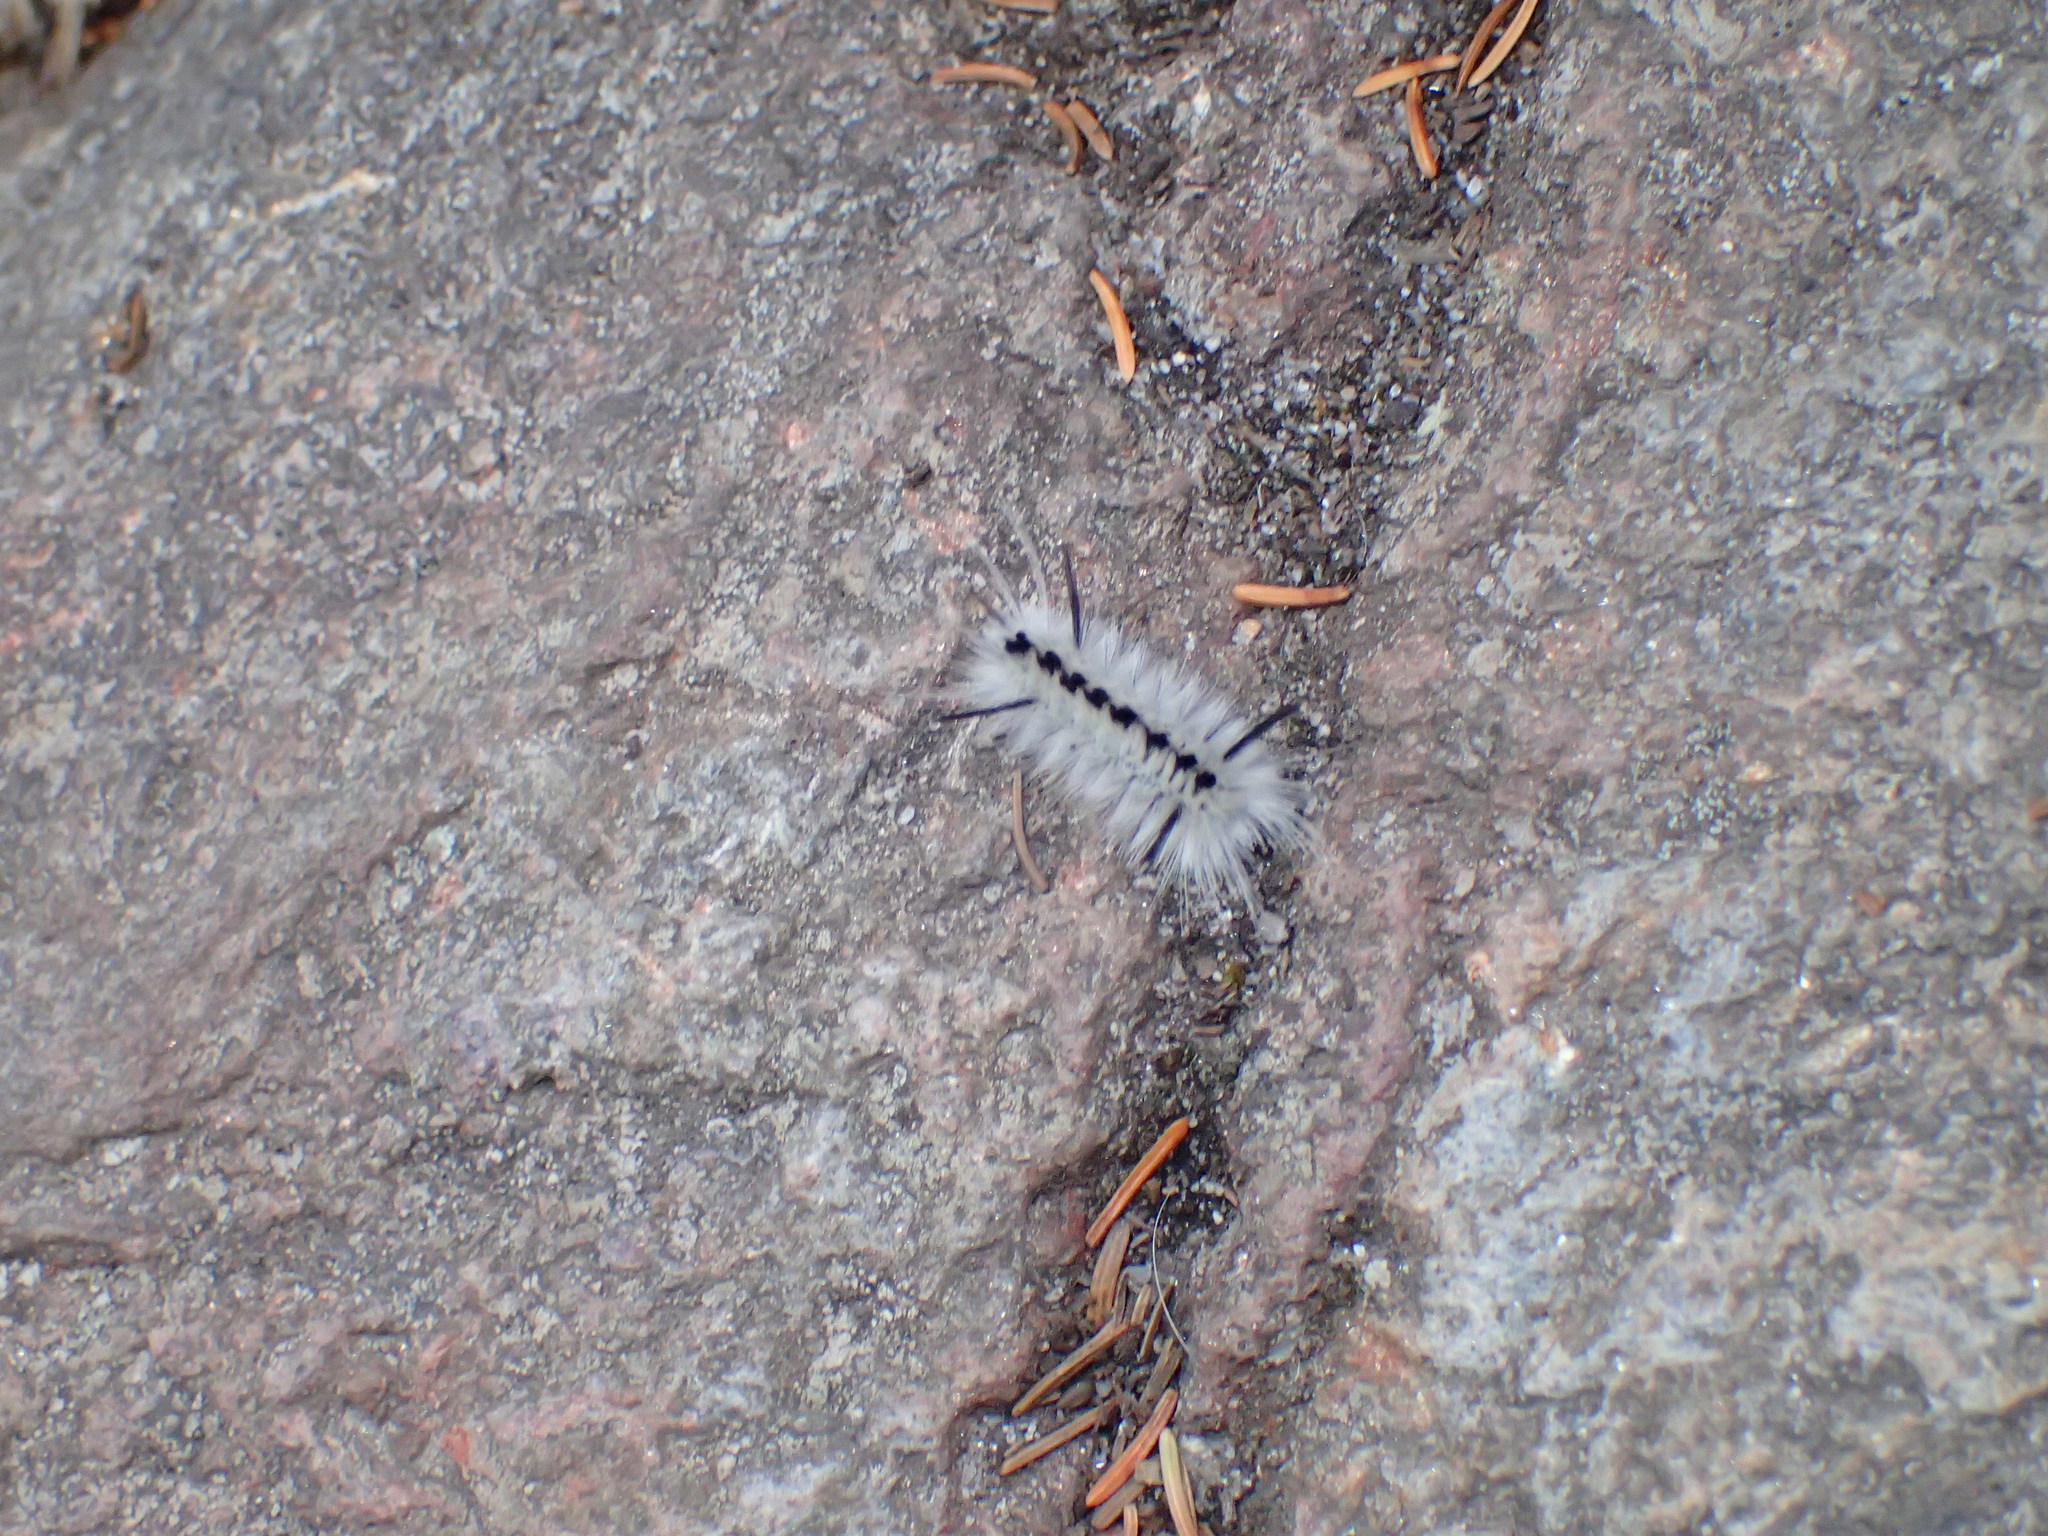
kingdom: Animalia
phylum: Arthropoda
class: Insecta
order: Lepidoptera
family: Erebidae
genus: Lophocampa
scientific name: Lophocampa caryae
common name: Hickory tussock moth
